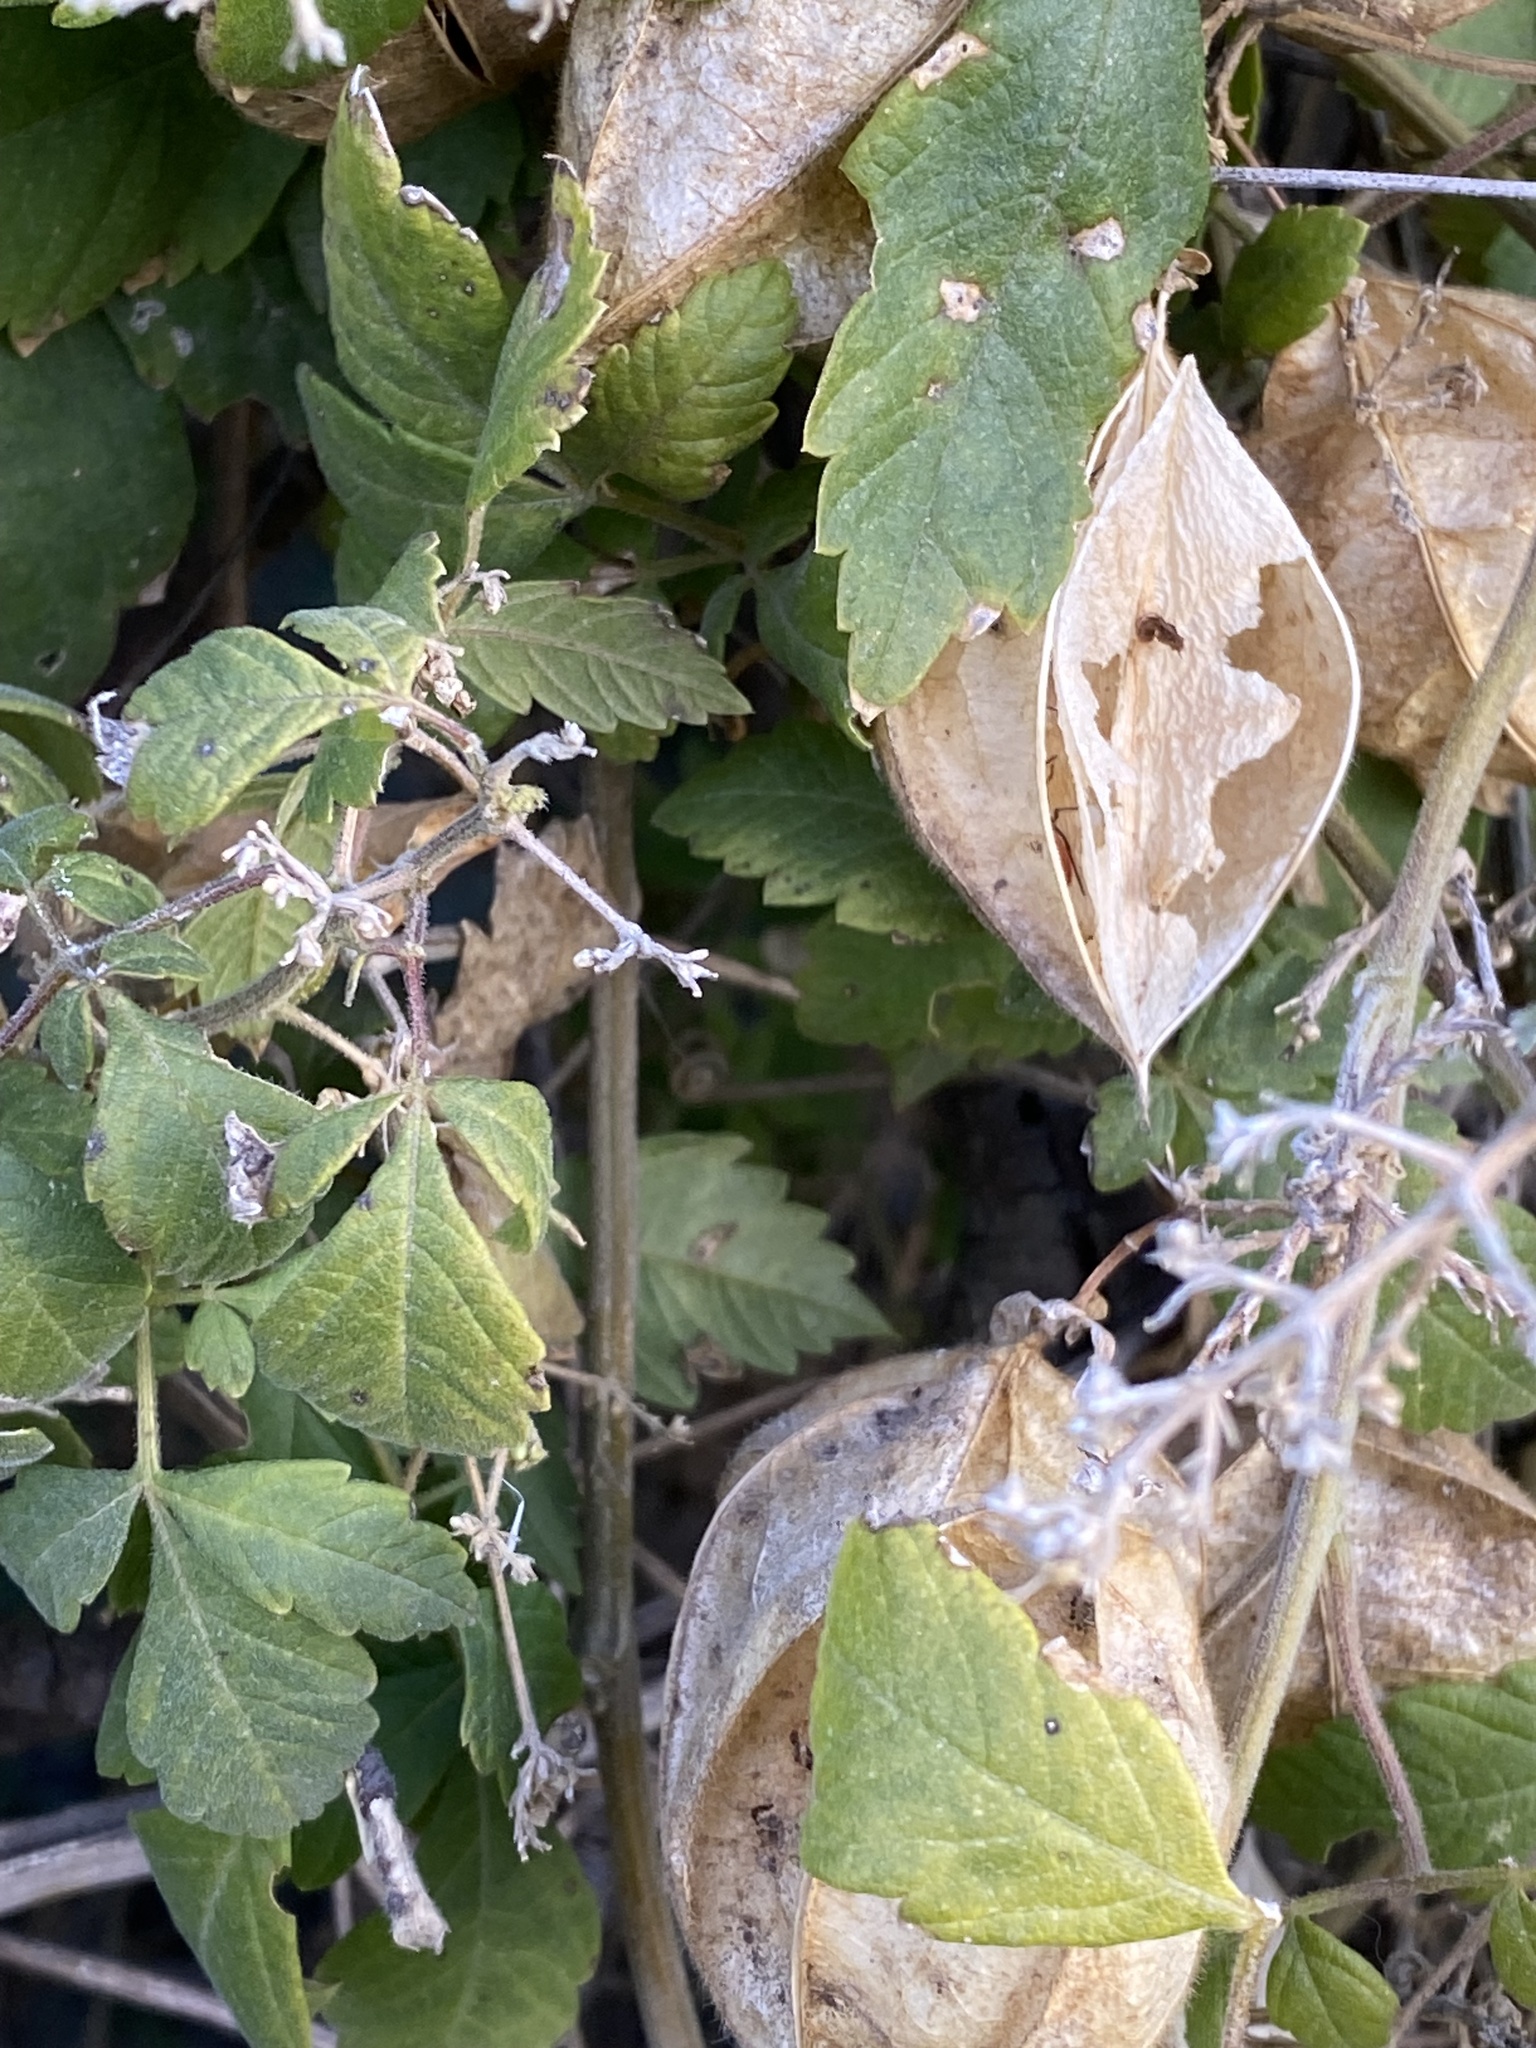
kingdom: Plantae
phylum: Tracheophyta
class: Magnoliopsida
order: Sapindales
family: Sapindaceae
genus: Cardiospermum
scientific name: Cardiospermum grandiflorum
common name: Balloon vine
